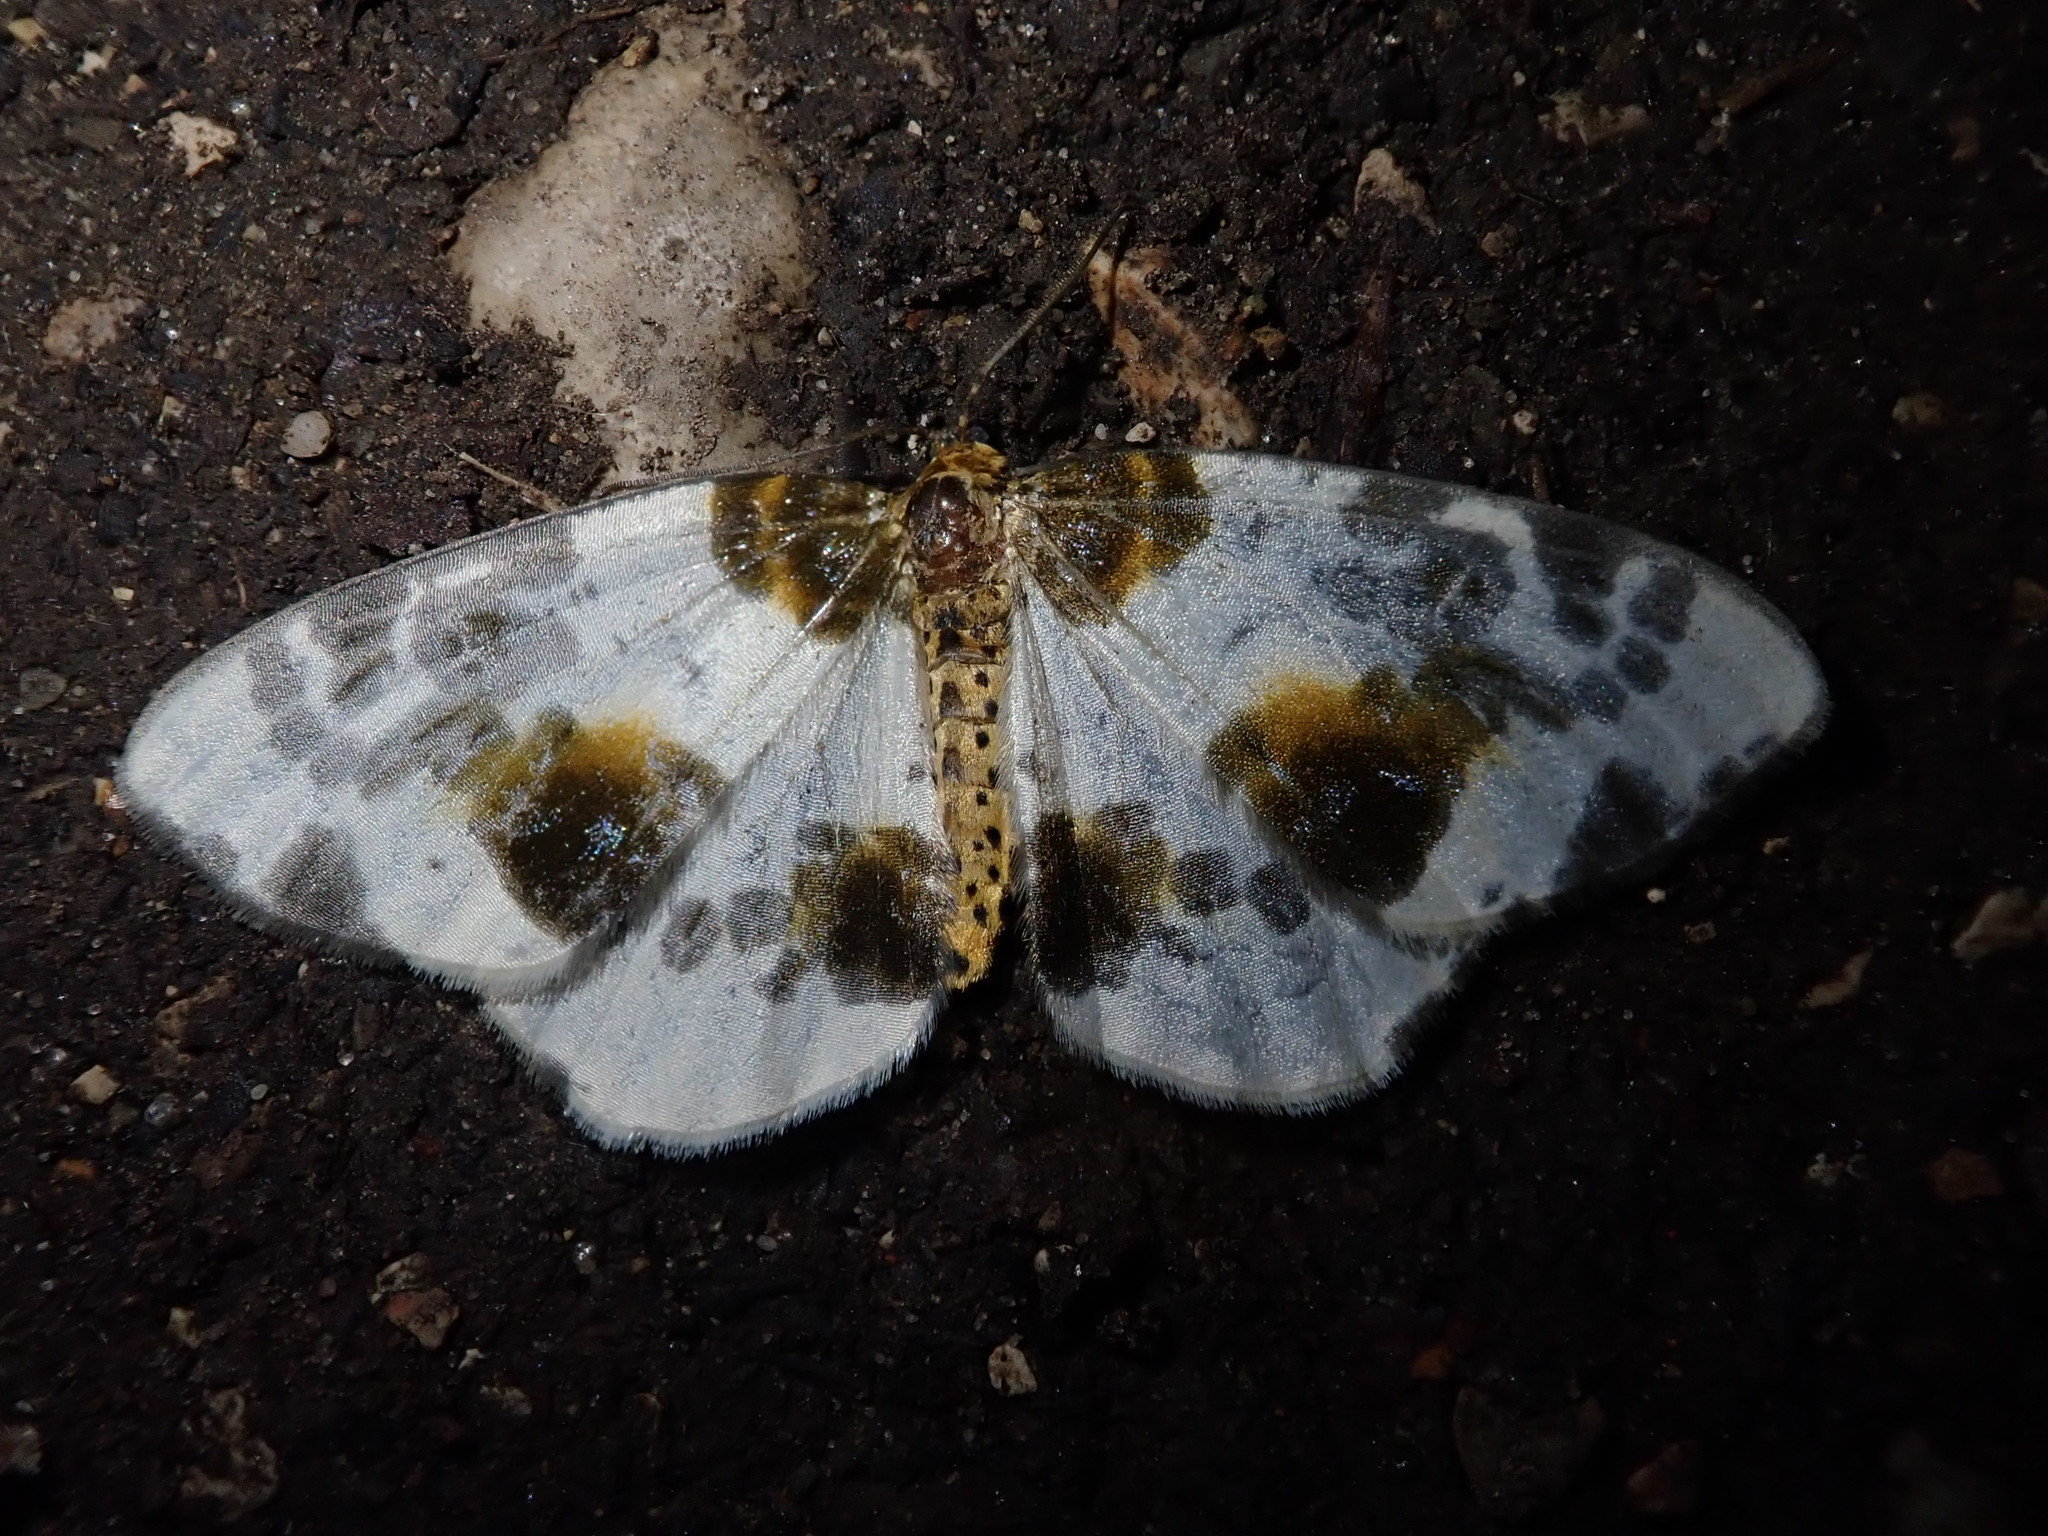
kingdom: Animalia
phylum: Arthropoda
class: Insecta
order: Lepidoptera
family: Geometridae
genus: Abraxas
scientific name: Abraxas sylvata
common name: Clouded magpie
